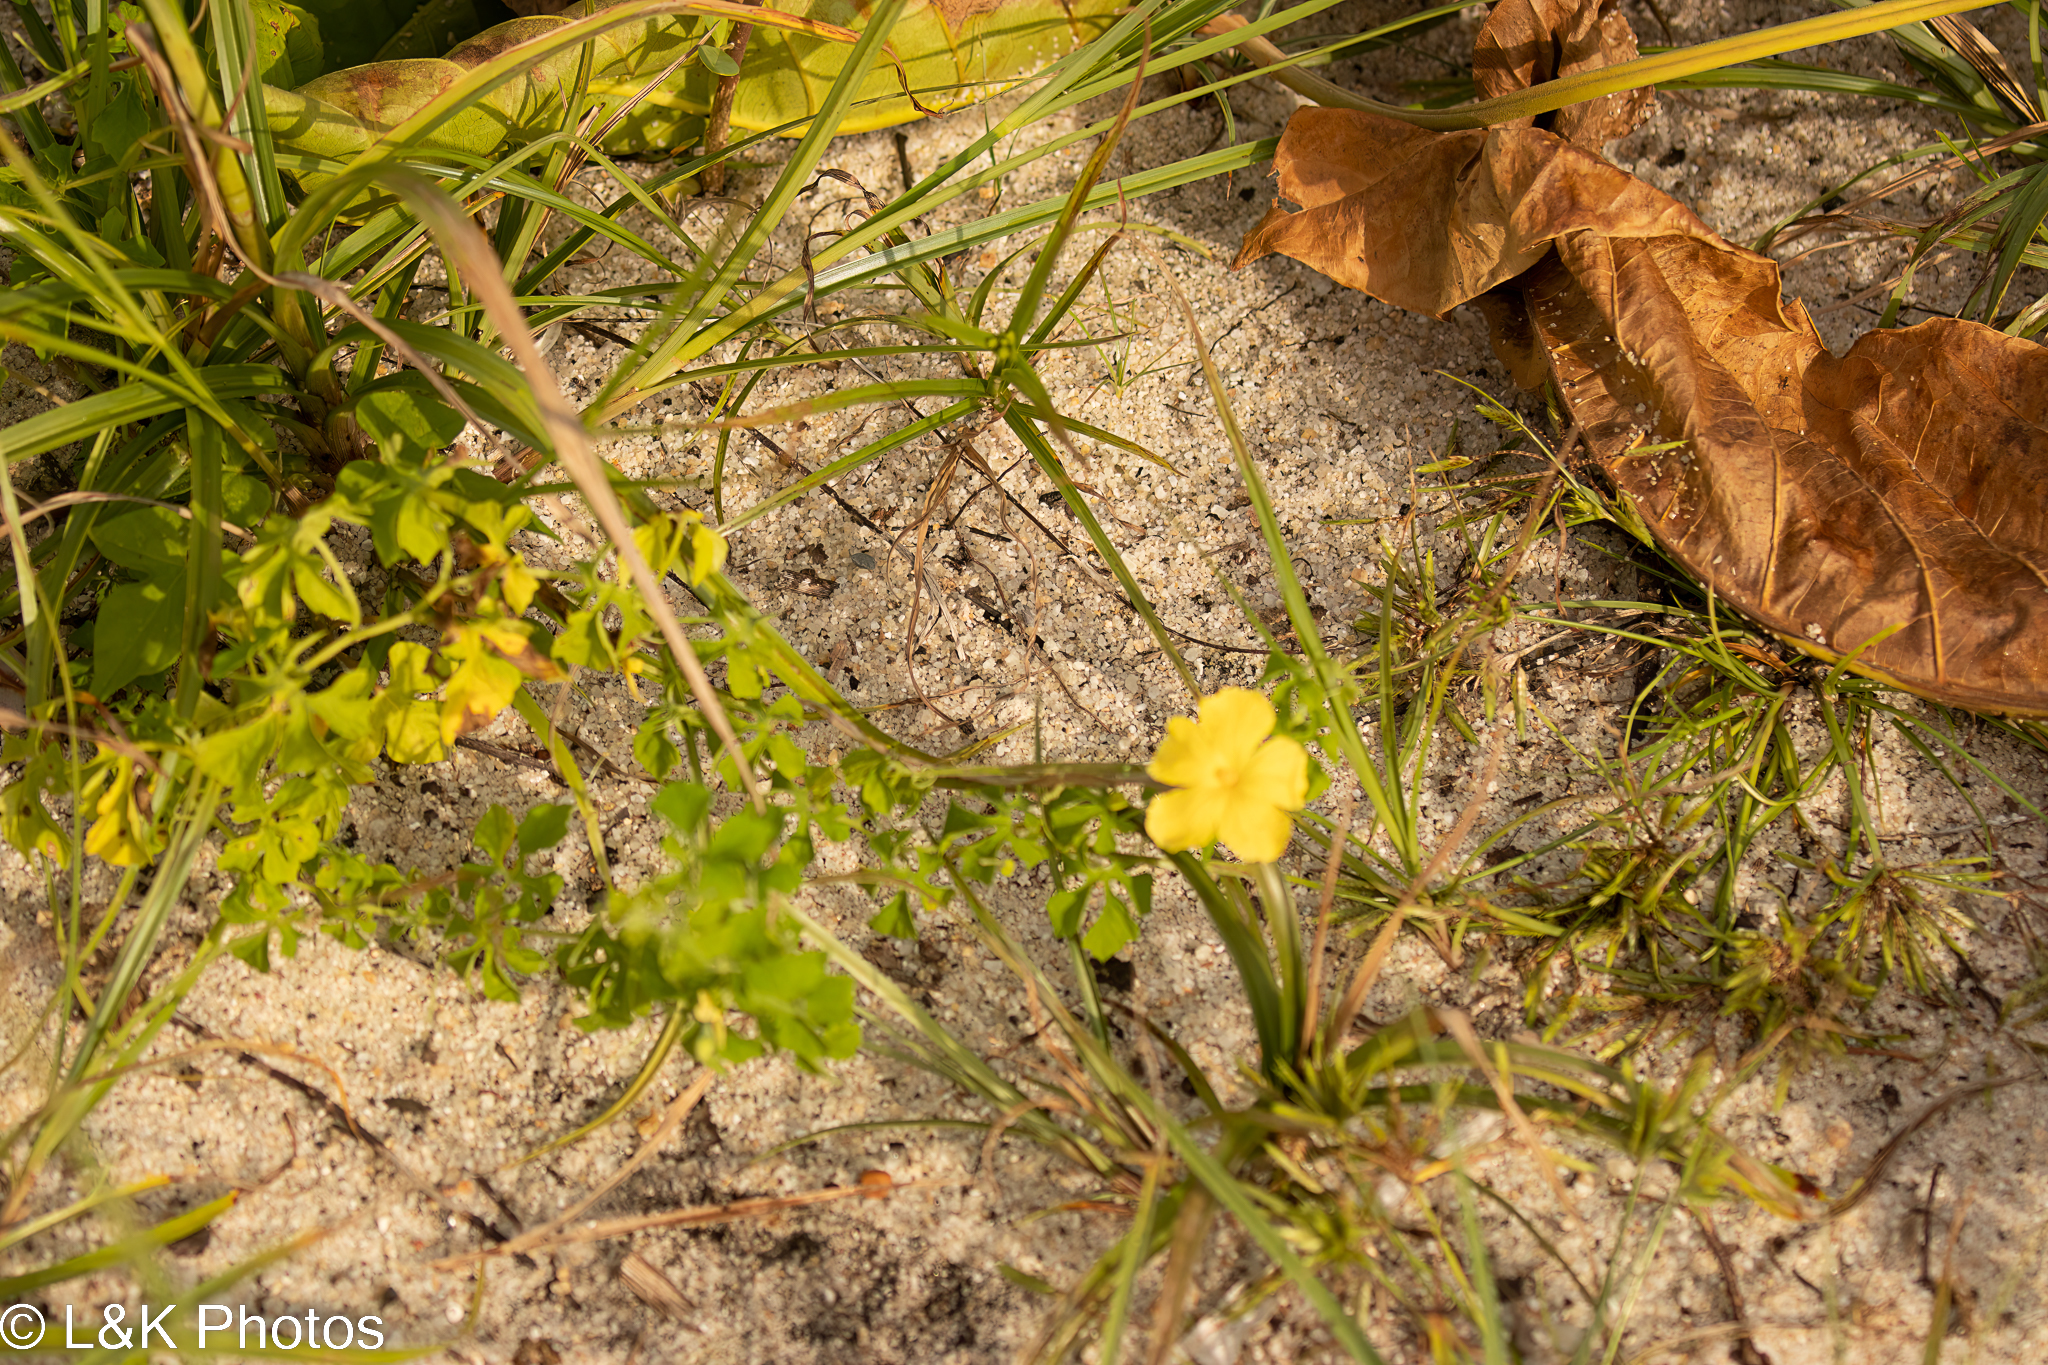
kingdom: Plantae
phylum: Tracheophyta
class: Magnoliopsida
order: Cucurbitales
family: Cucurbitaceae
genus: Momordica
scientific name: Momordica charantia
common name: Balsampear
